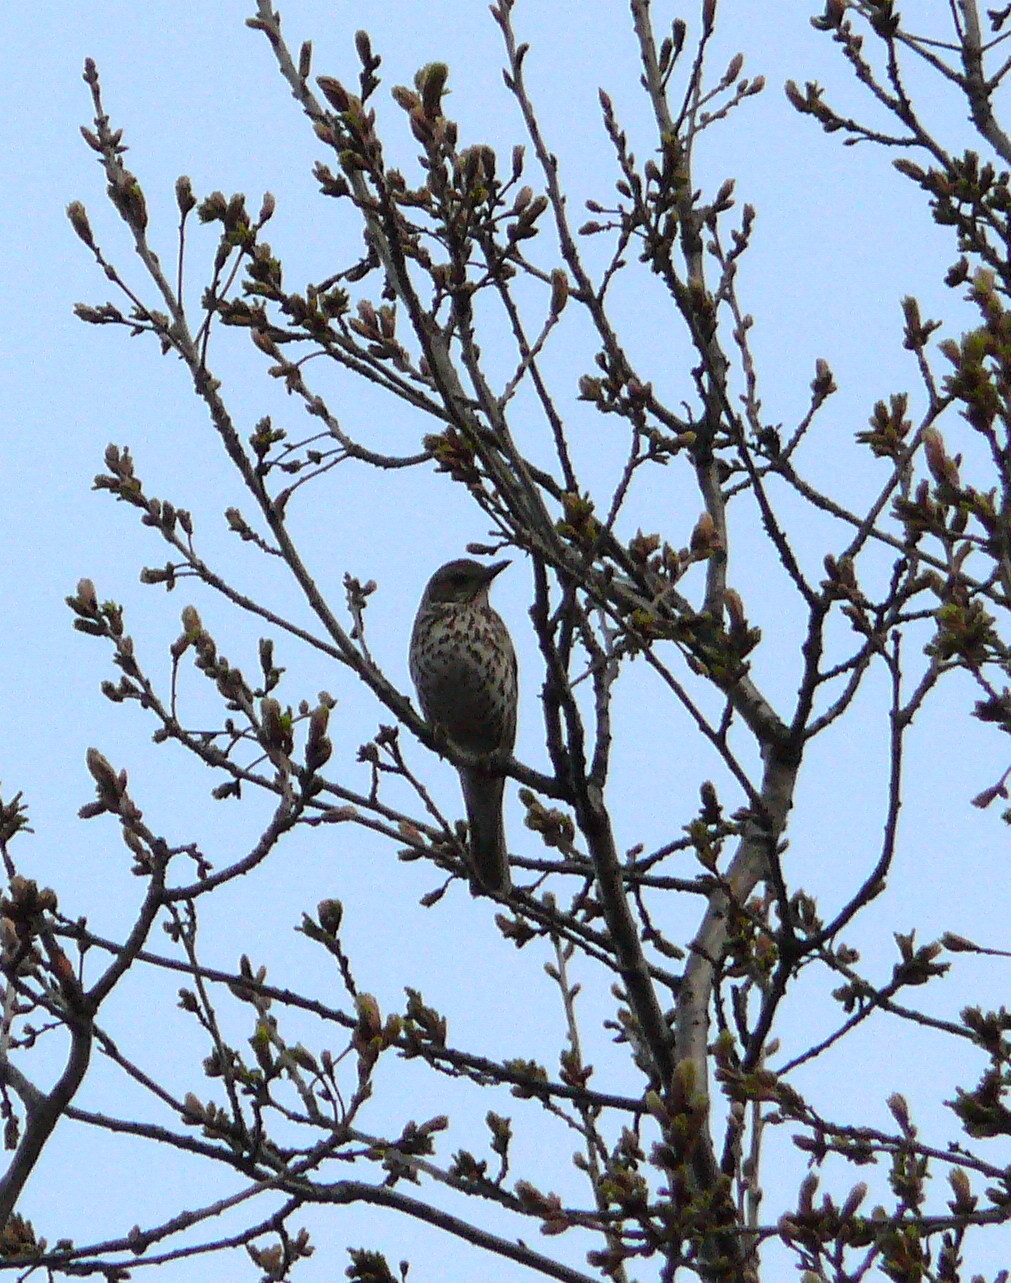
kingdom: Animalia
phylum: Chordata
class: Aves
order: Passeriformes
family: Turdidae
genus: Turdus
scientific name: Turdus philomelos
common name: Song thrush
